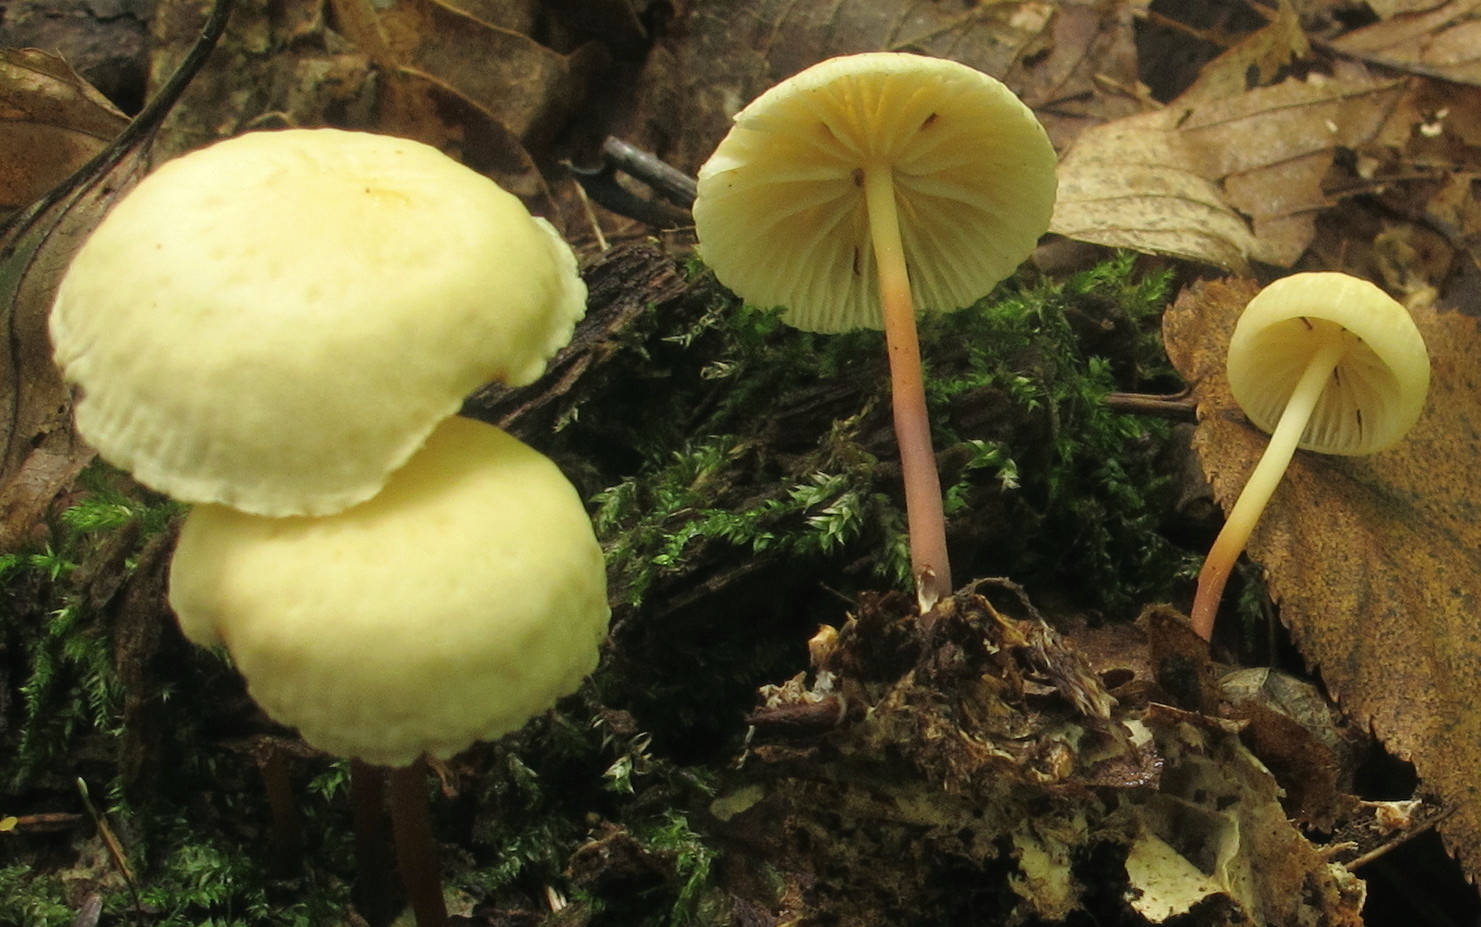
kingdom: Fungi
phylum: Basidiomycota
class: Agaricomycetes
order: Agaricales
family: Marasmiaceae
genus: Marasmius
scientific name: Marasmius delectans
